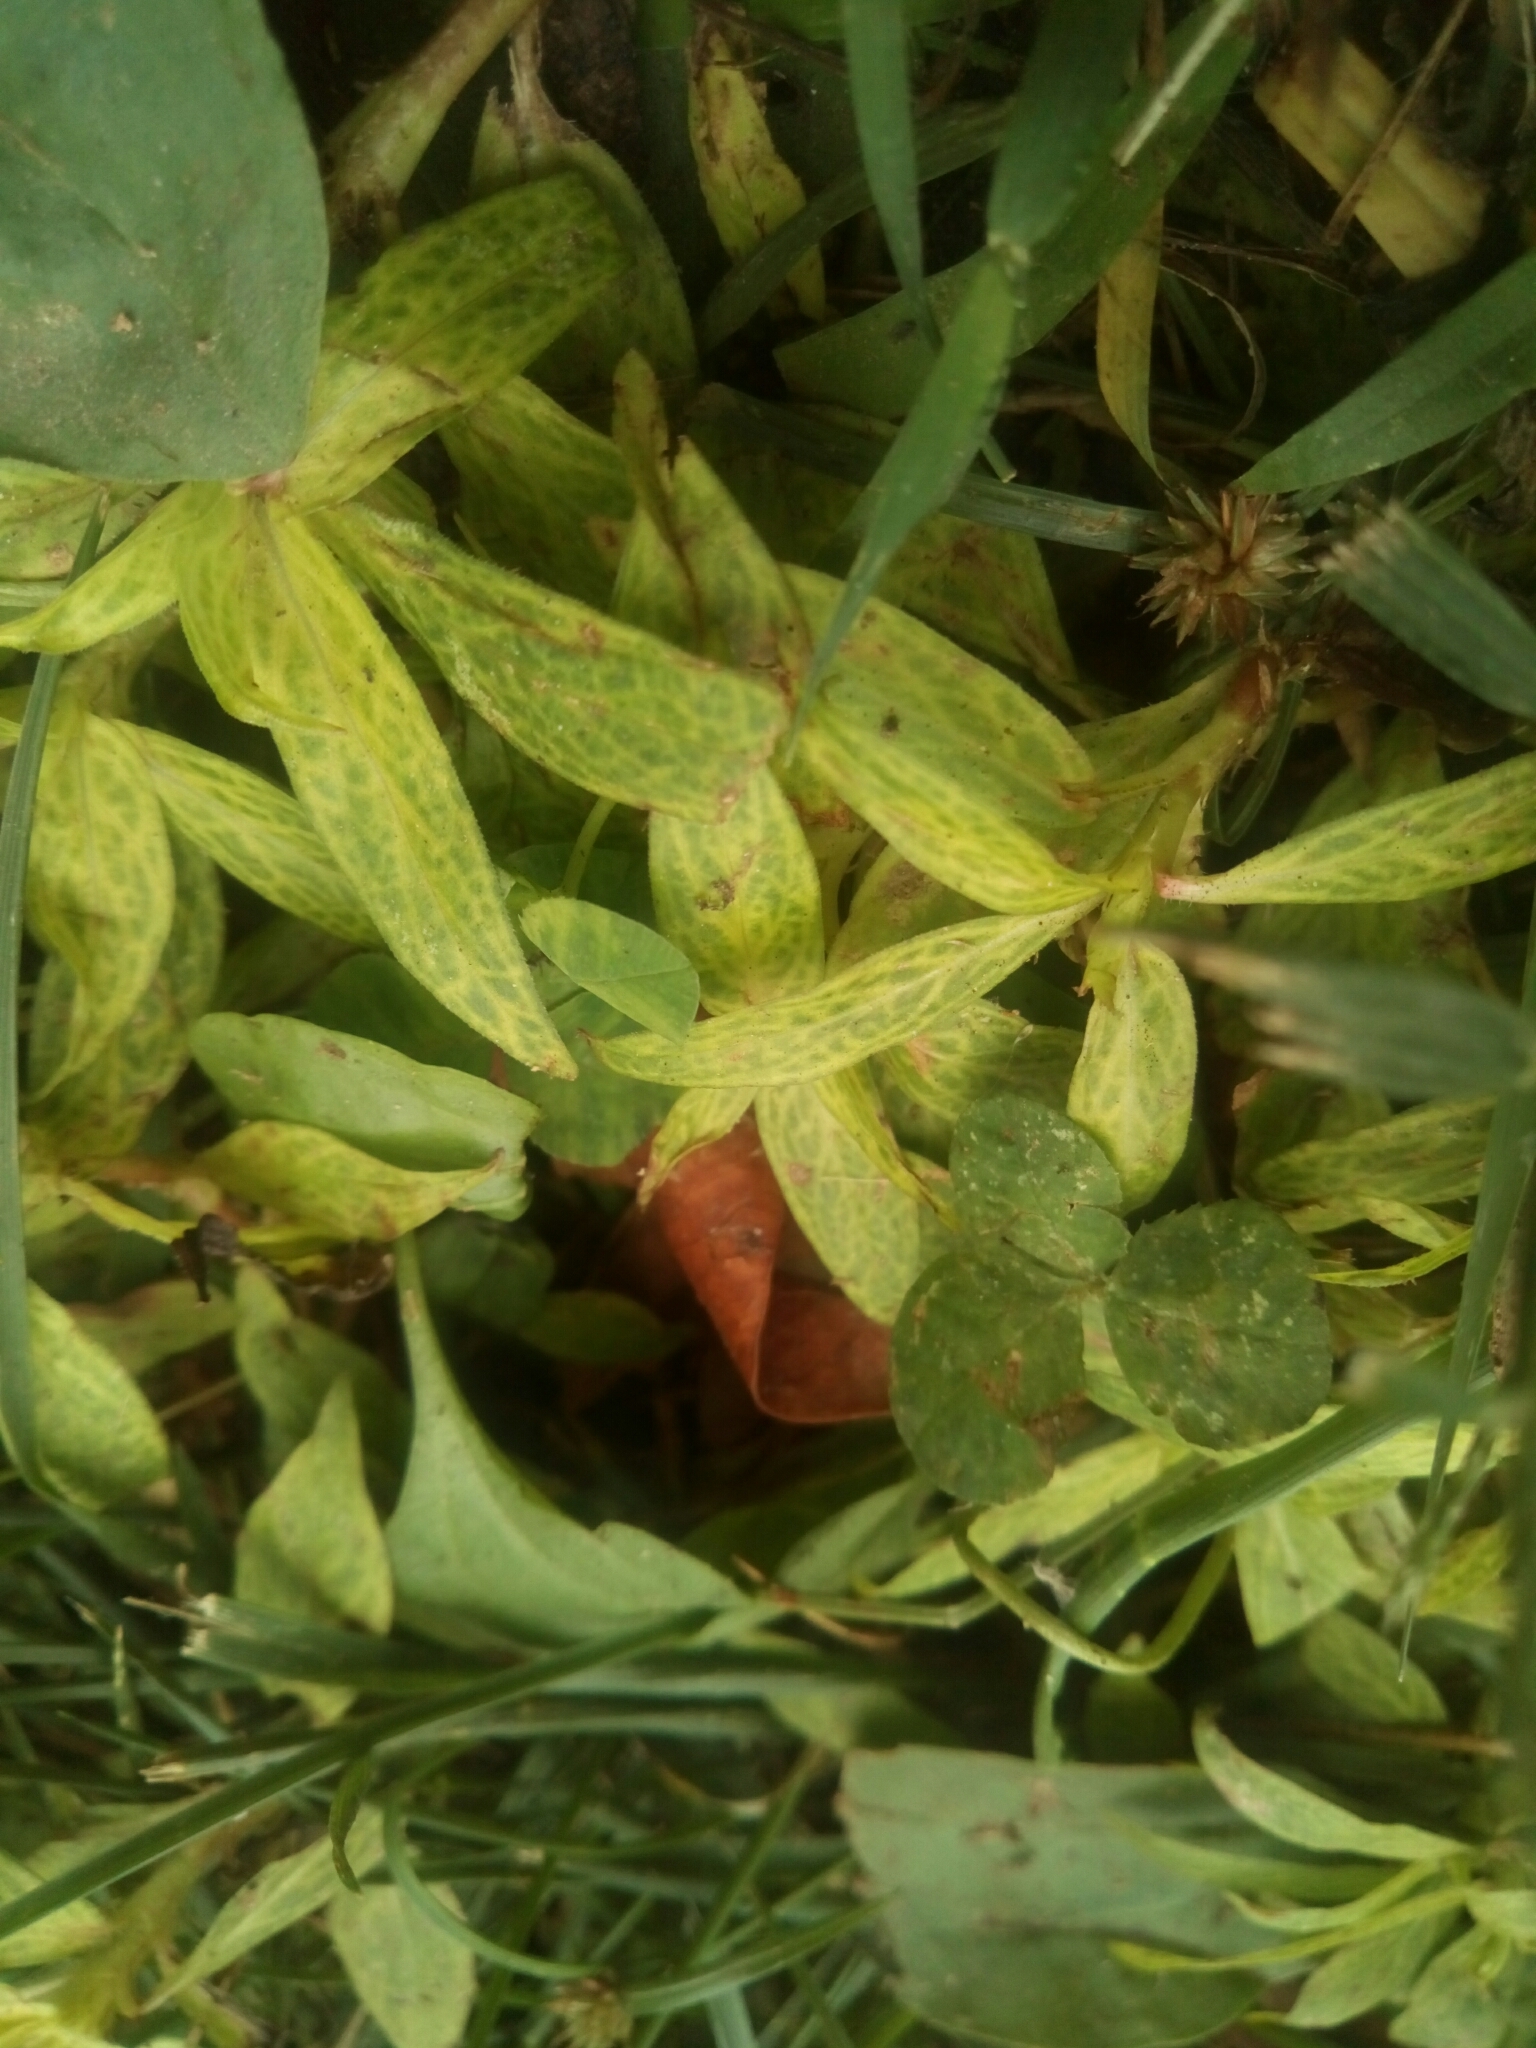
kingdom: Plantae
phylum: Tracheophyta
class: Magnoliopsida
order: Gentianales
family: Rubiaceae
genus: Diodia
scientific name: Diodia virginiana
